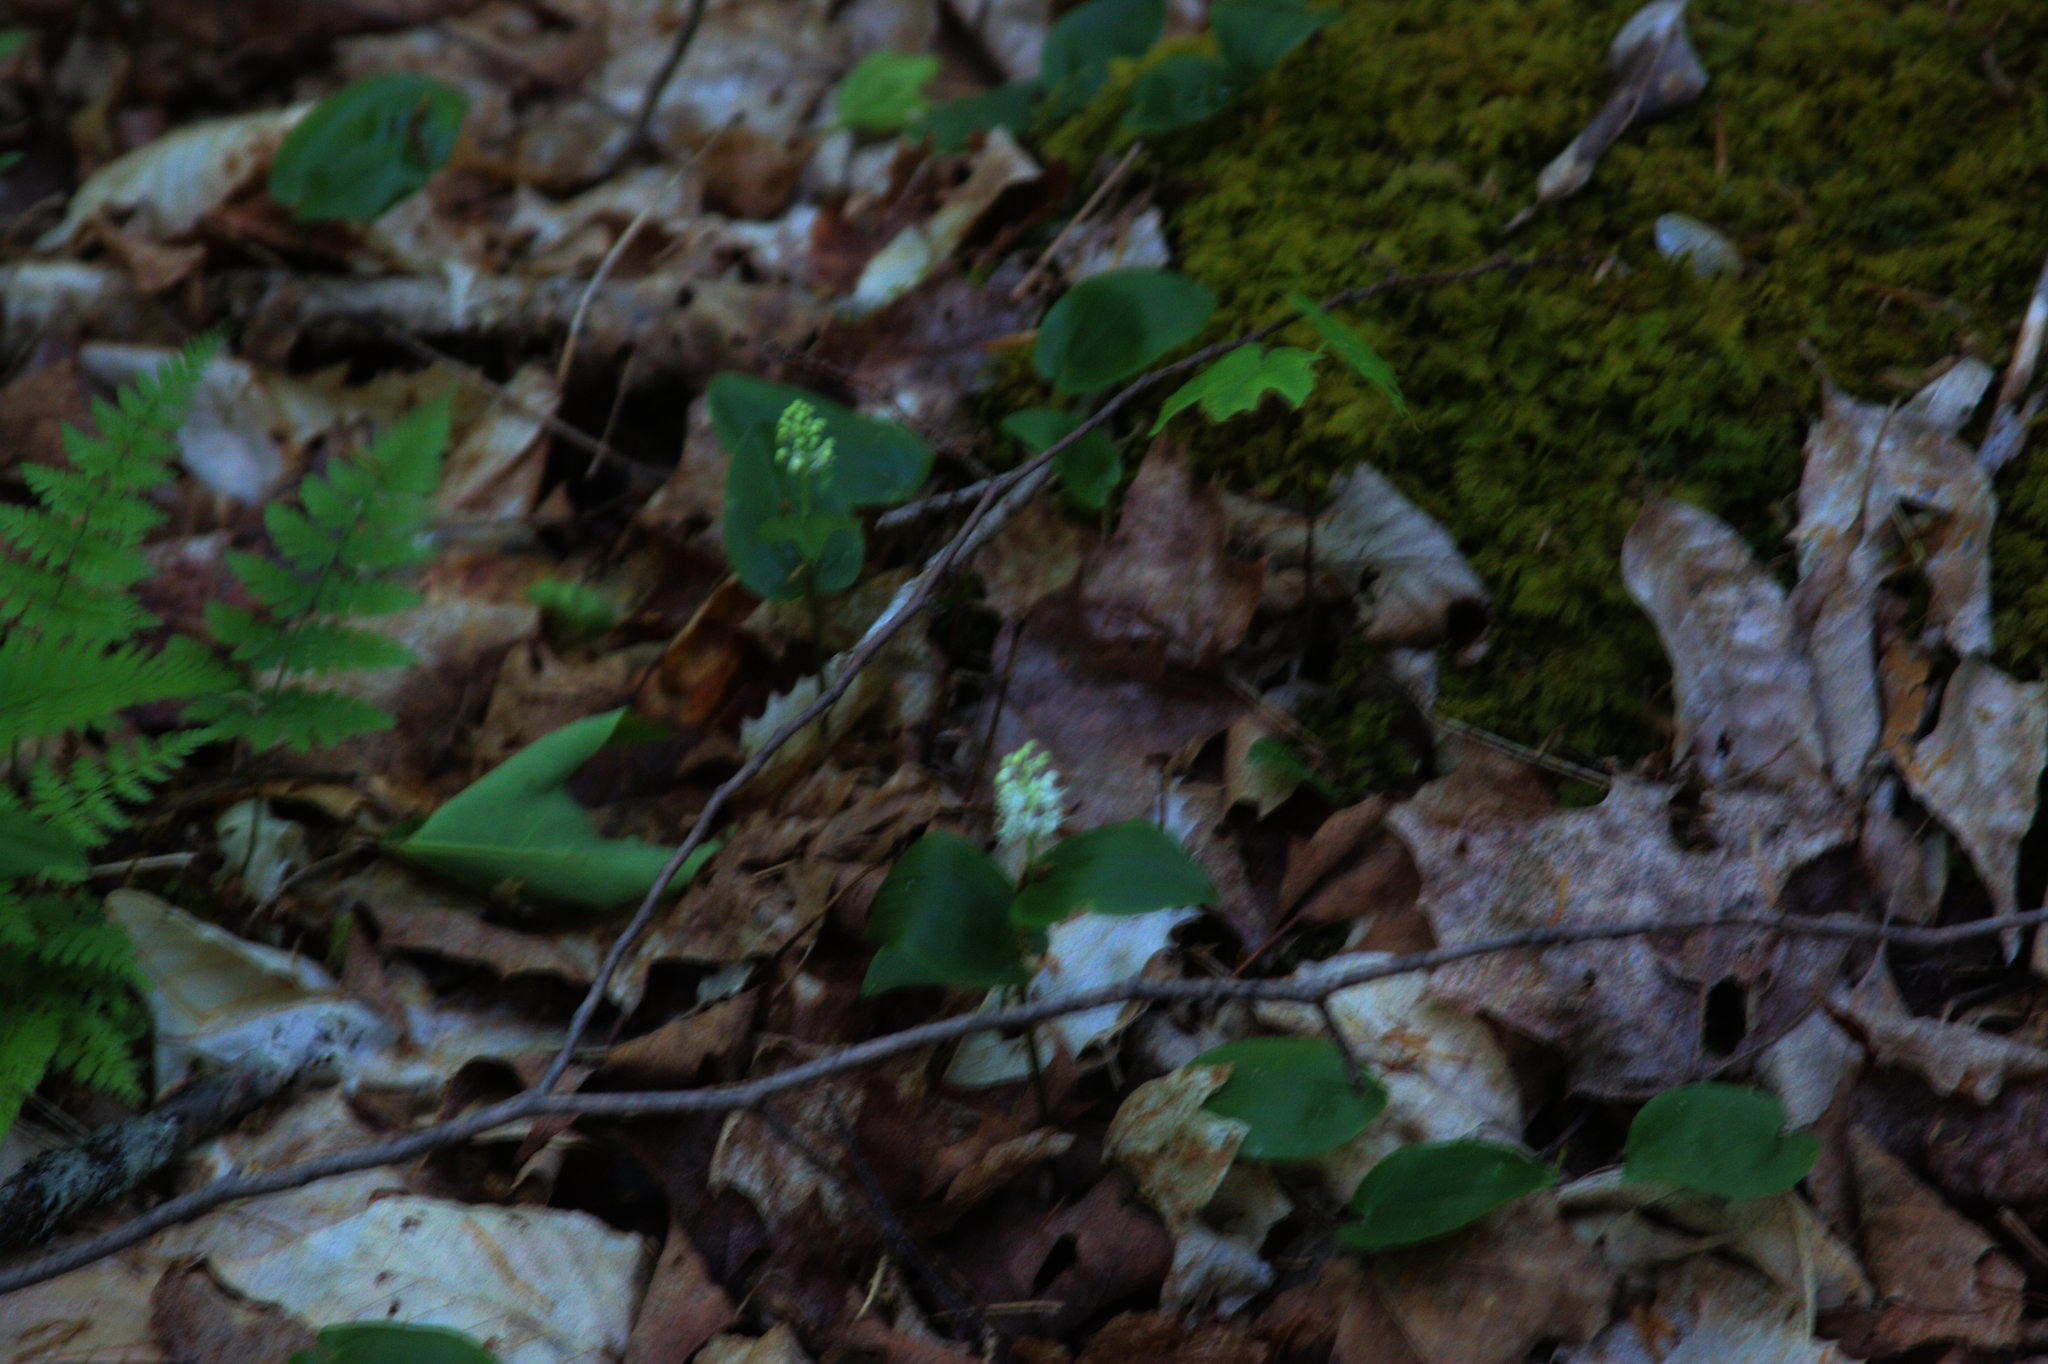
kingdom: Plantae
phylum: Tracheophyta
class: Liliopsida
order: Asparagales
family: Asparagaceae
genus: Maianthemum
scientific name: Maianthemum canadense
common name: False lily-of-the-valley
